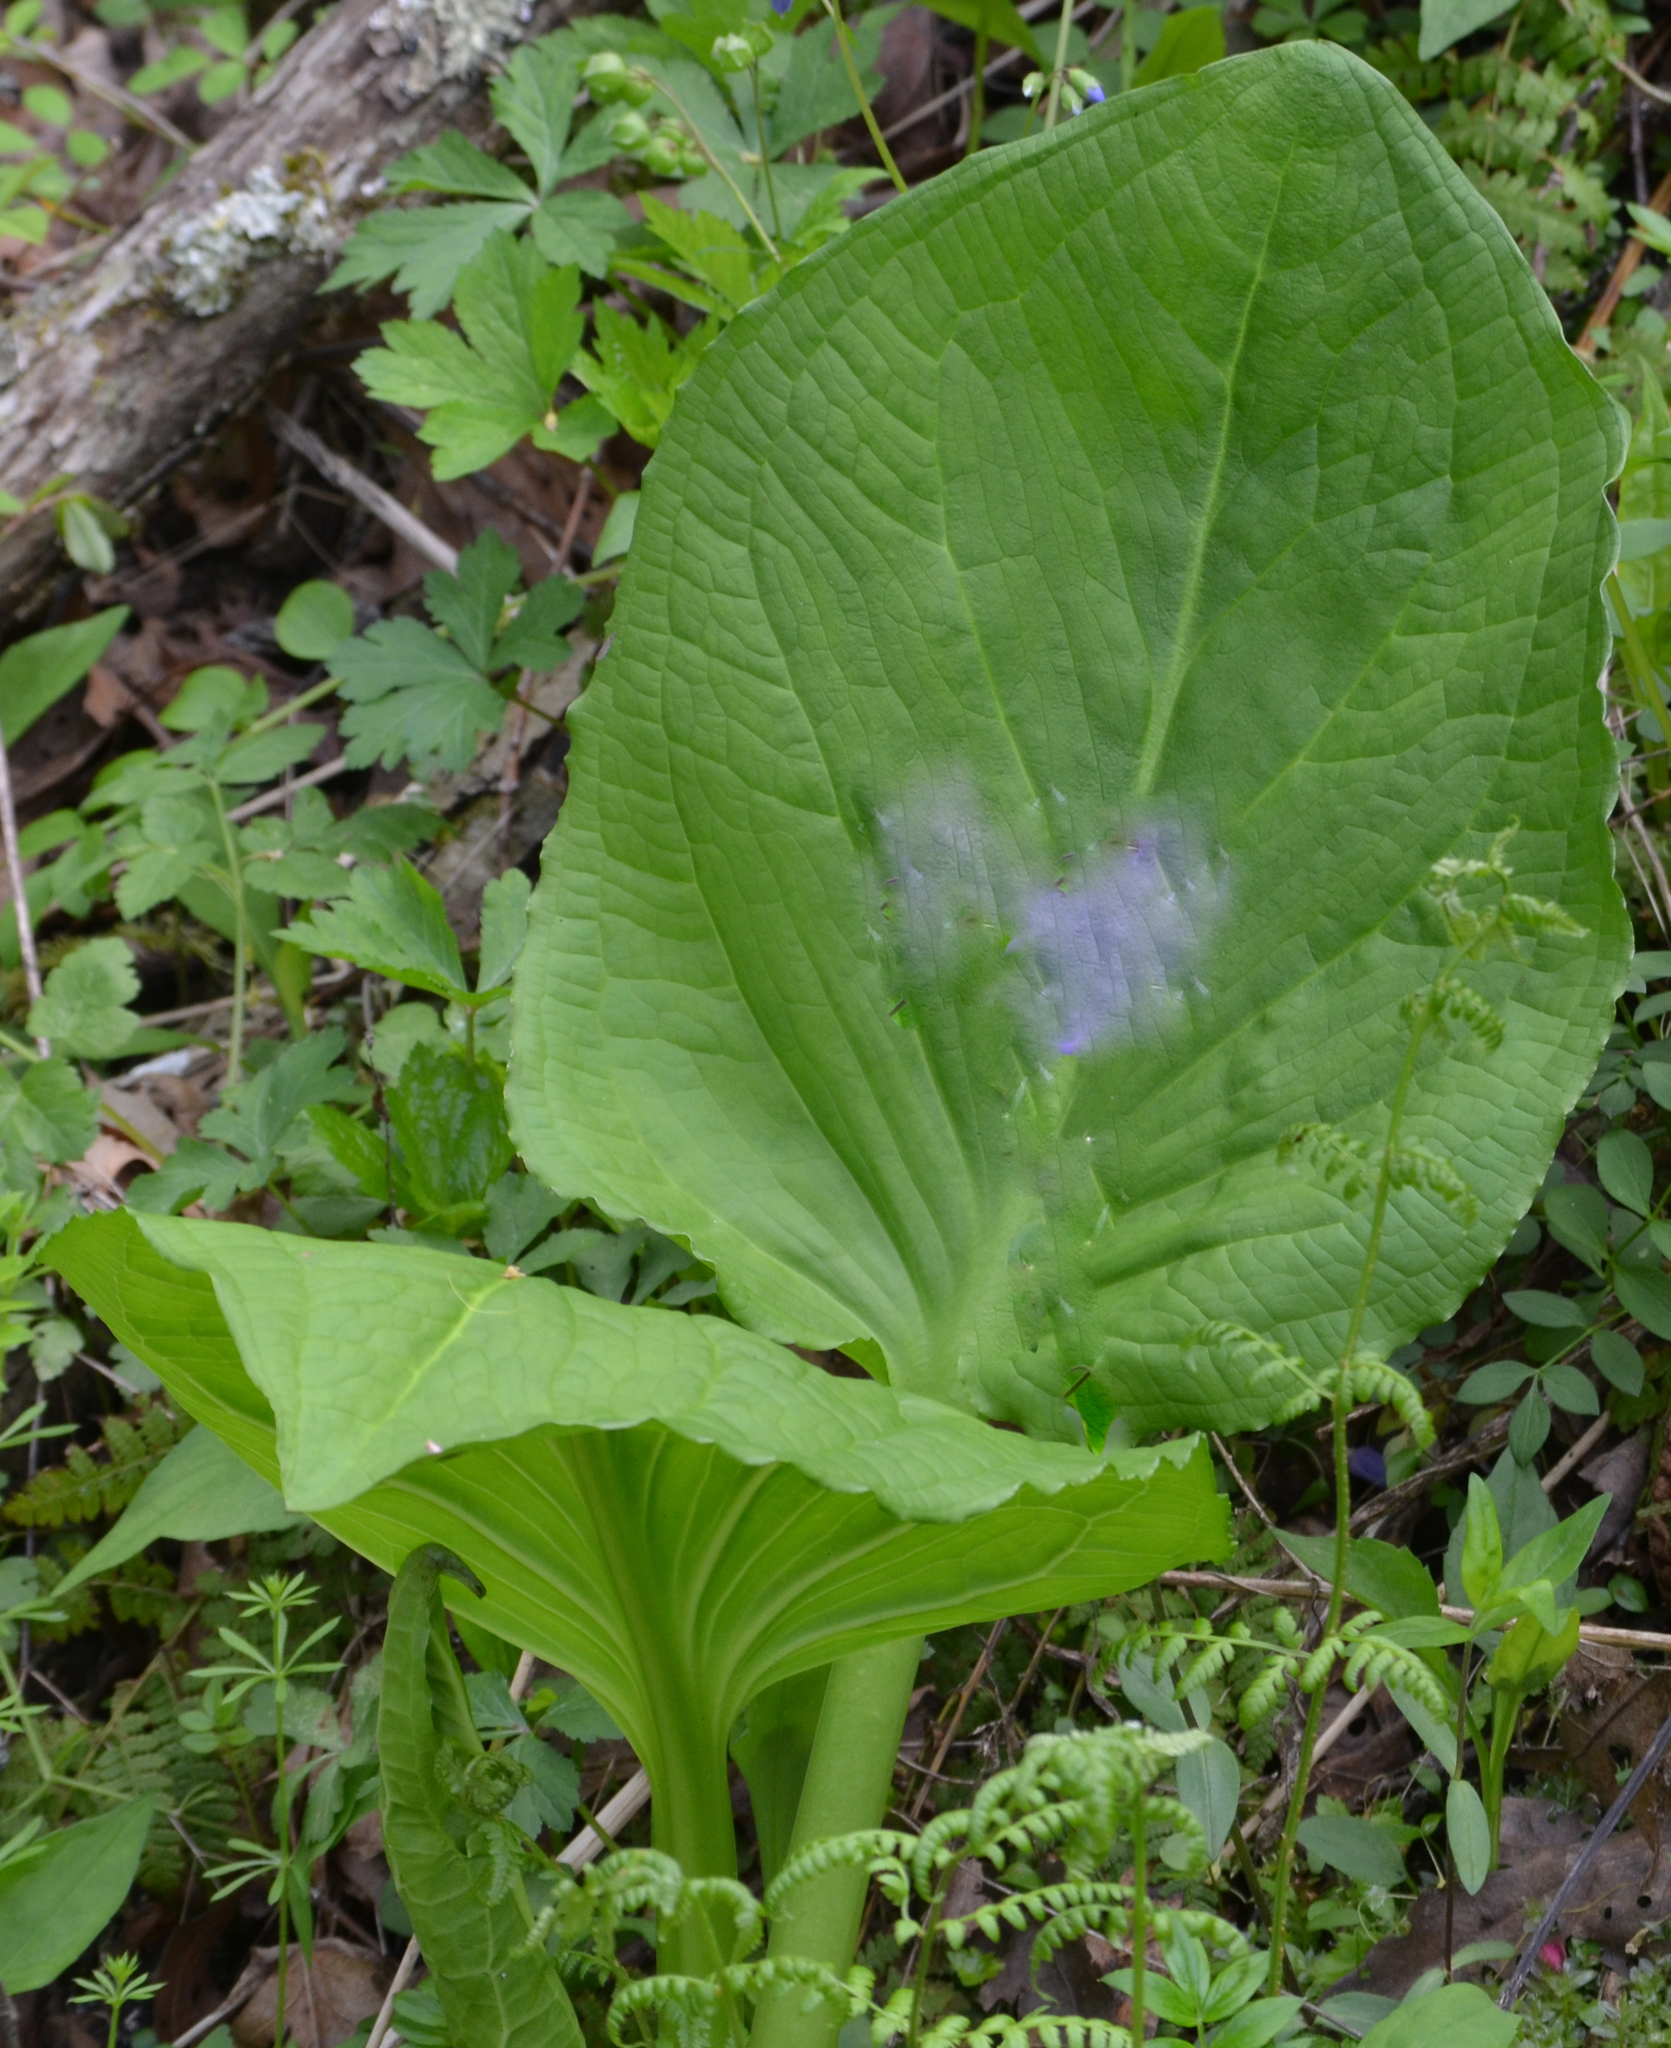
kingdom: Plantae
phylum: Tracheophyta
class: Liliopsida
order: Alismatales
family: Araceae
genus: Symplocarpus
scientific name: Symplocarpus foetidus
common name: Eastern skunk cabbage
